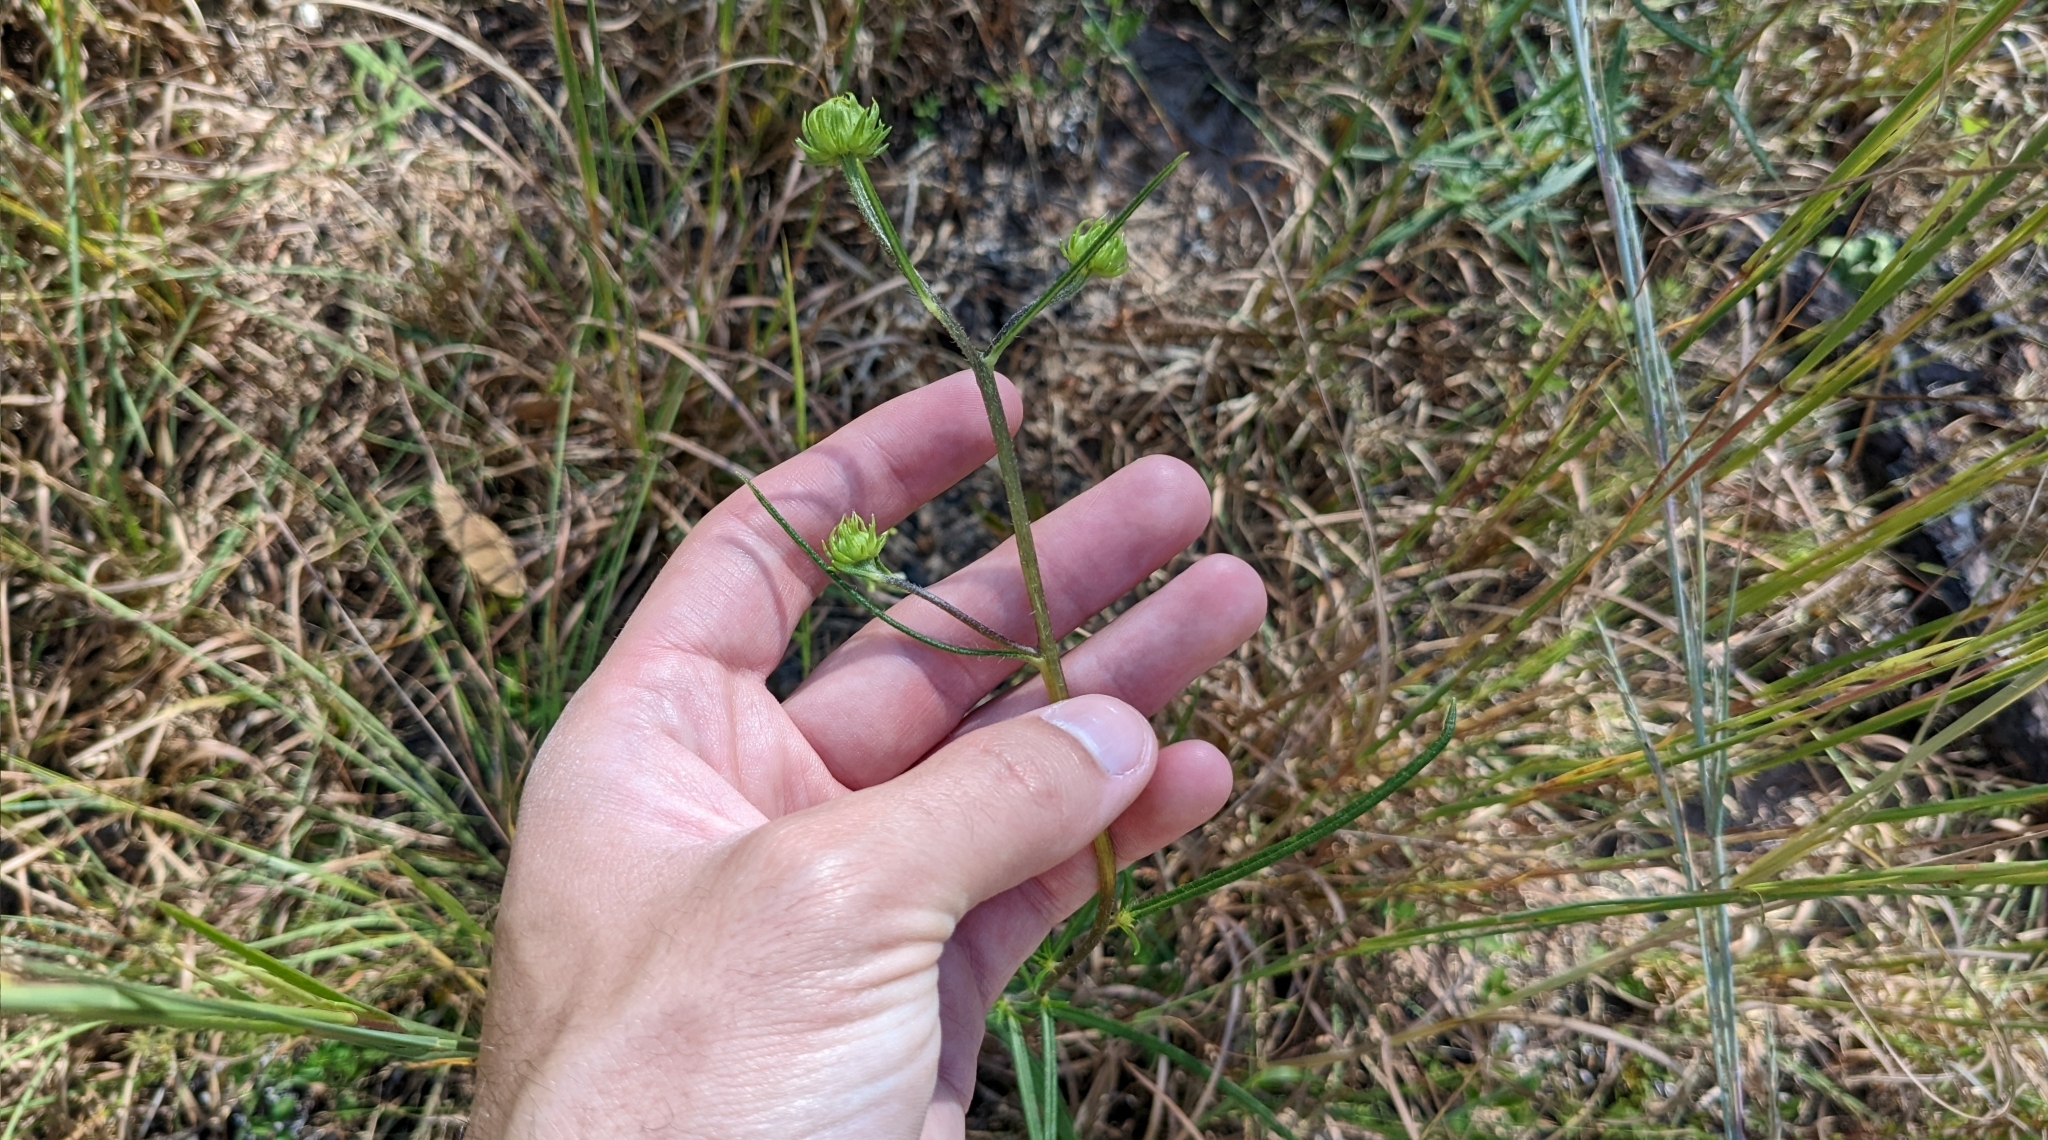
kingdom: Plantae
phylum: Tracheophyta
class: Magnoliopsida
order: Asterales
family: Asteraceae
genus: Helianthus
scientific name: Helianthus angustifolius
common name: Swamp sunflower
